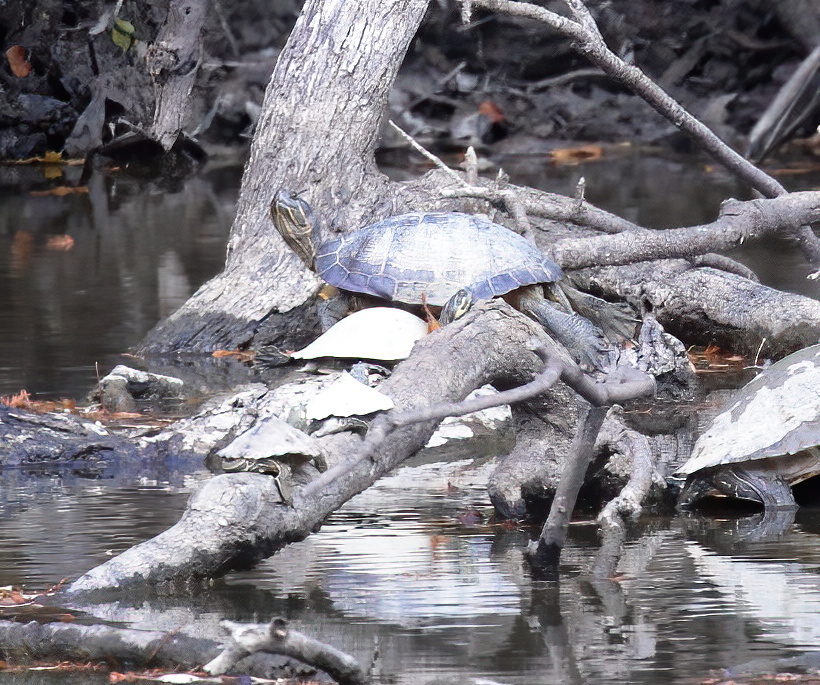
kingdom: Animalia
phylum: Chordata
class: Testudines
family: Emydidae
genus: Pseudemys
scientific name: Pseudemys concinna
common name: Eastern river cooter
